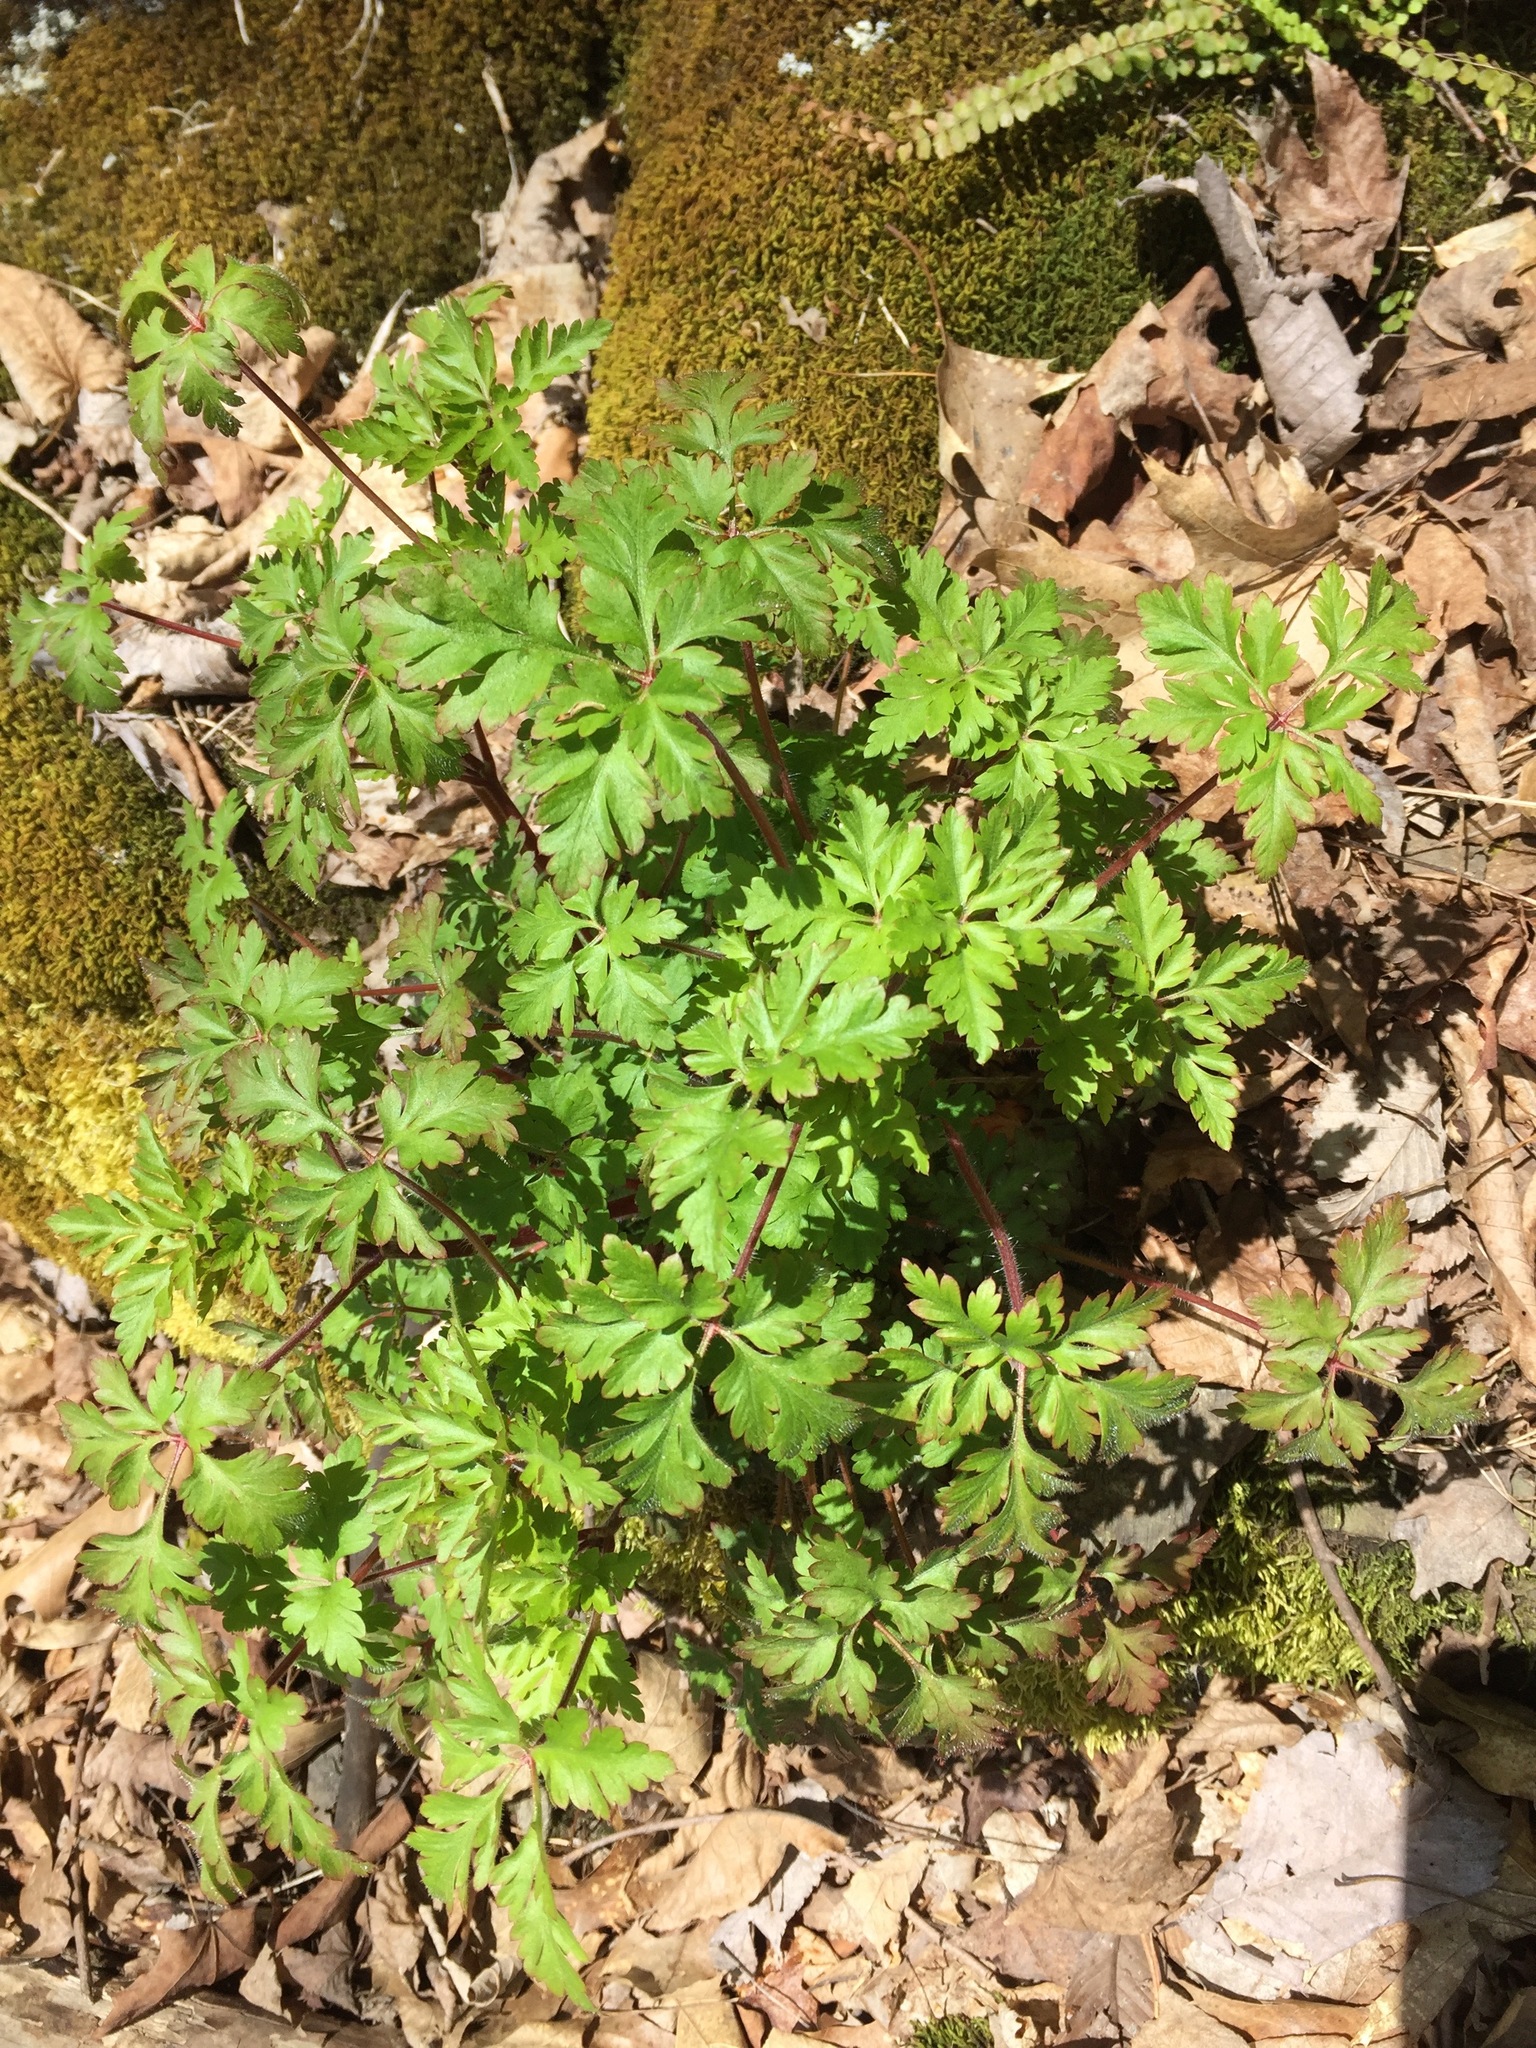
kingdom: Plantae
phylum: Tracheophyta
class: Magnoliopsida
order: Geraniales
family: Geraniaceae
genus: Geranium
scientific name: Geranium robertianum
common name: Herb-robert
